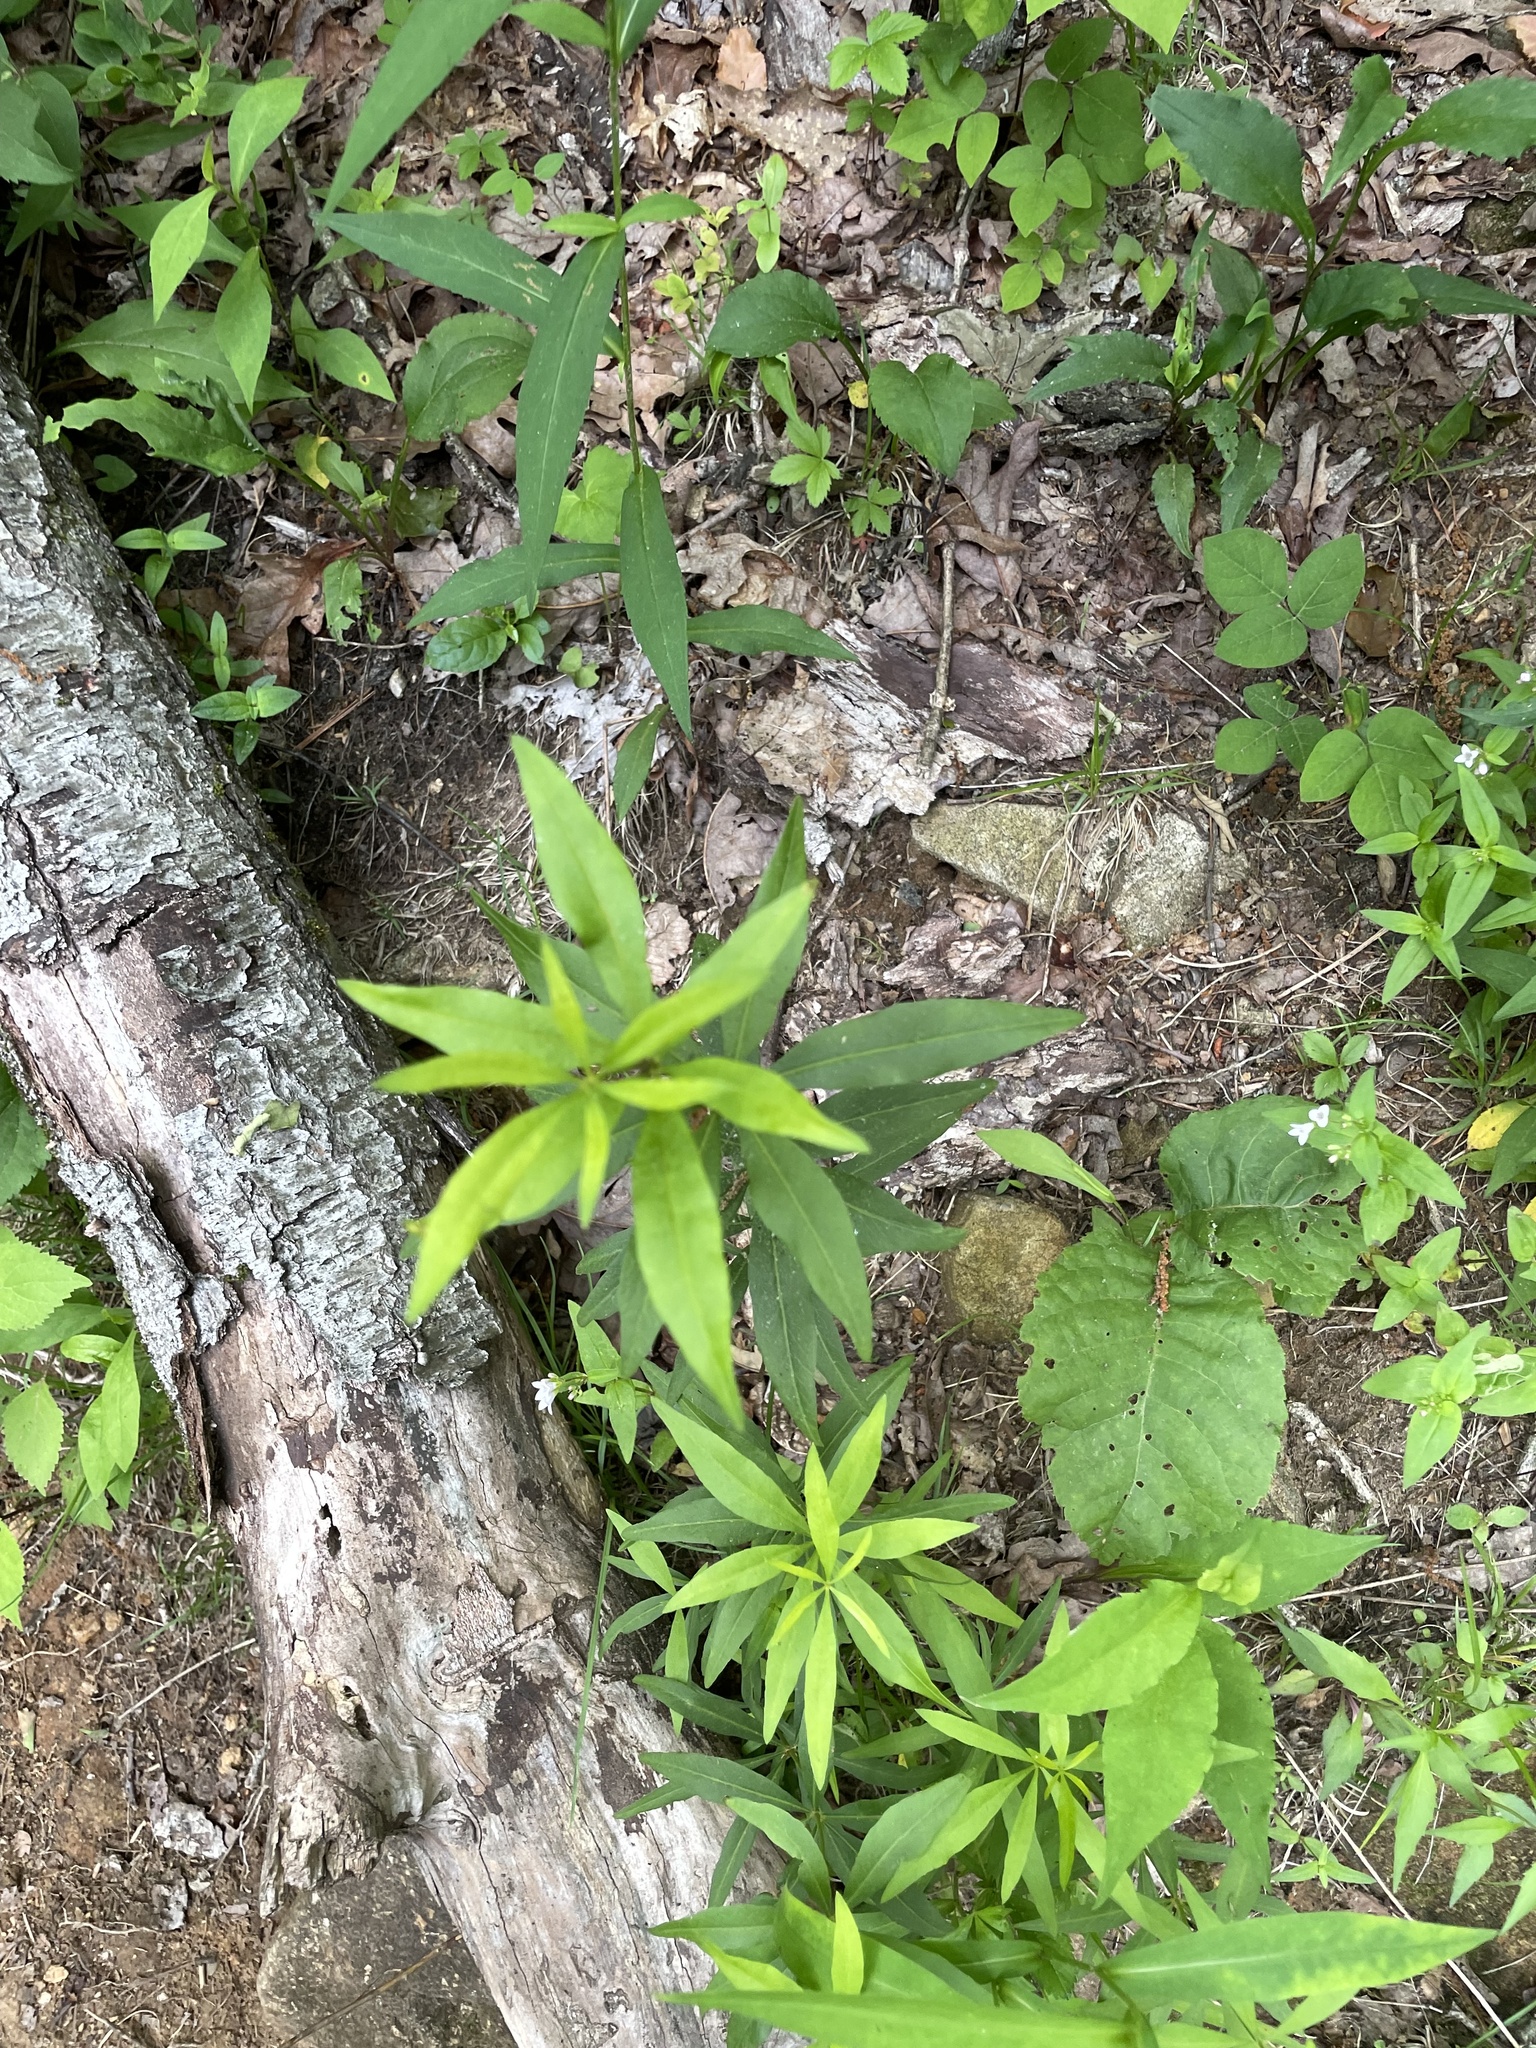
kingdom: Plantae
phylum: Tracheophyta
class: Magnoliopsida
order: Ericales
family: Primulaceae
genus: Lysimachia
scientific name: Lysimachia quadrifolia
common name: Whorled loosestrife
